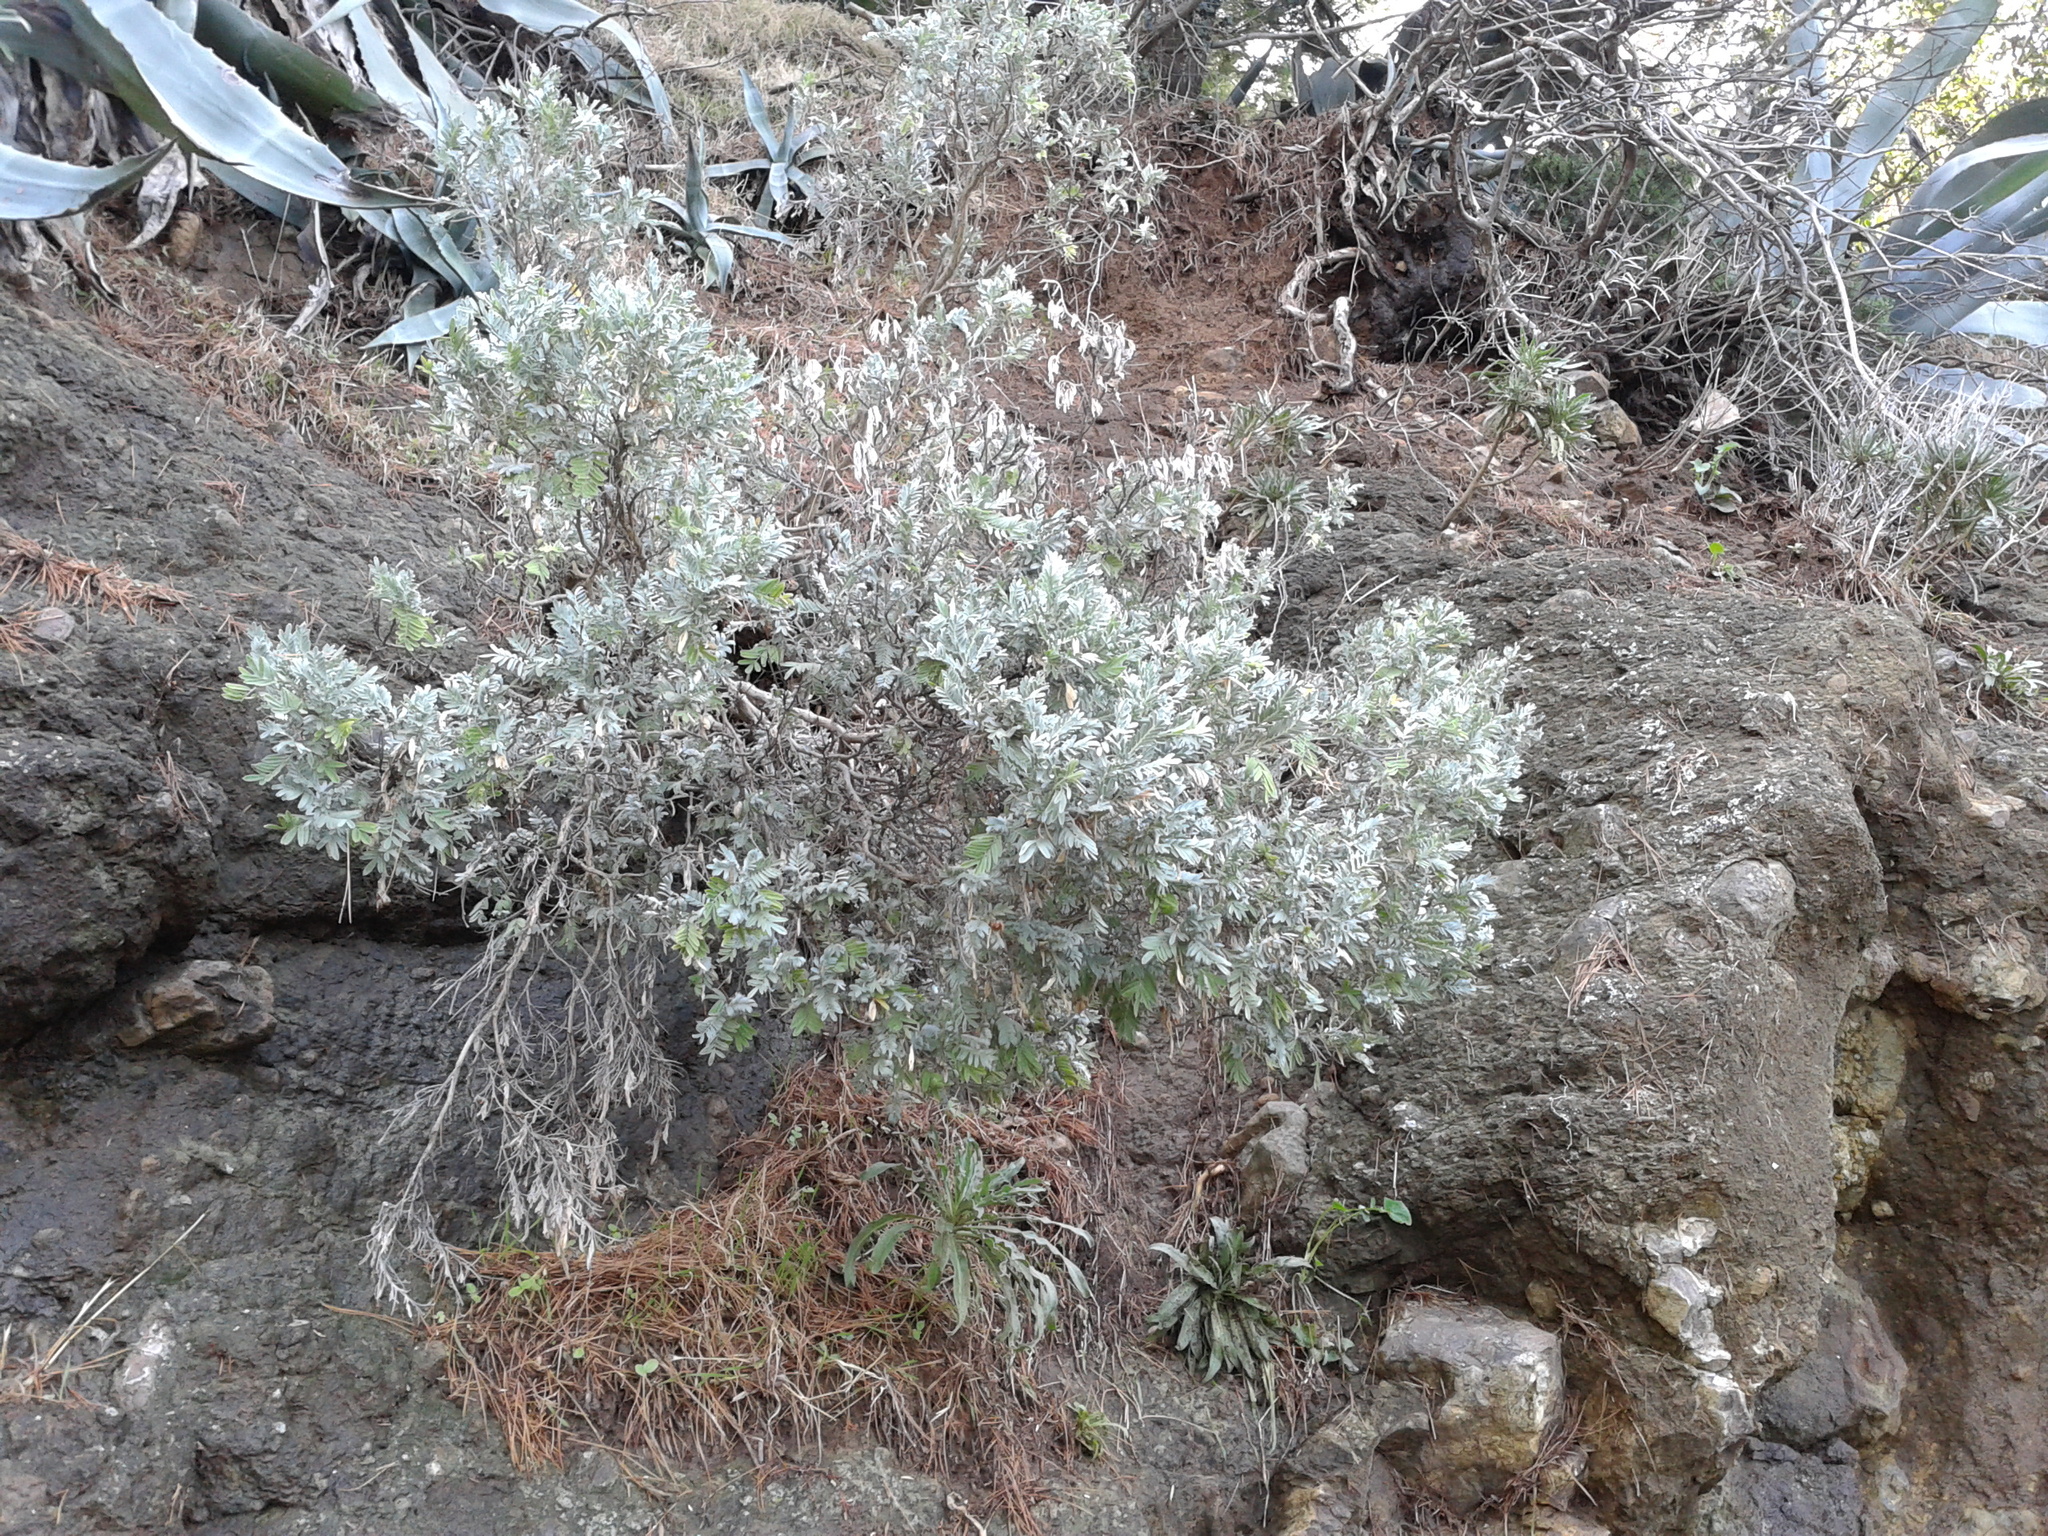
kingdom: Plantae
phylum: Tracheophyta
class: Magnoliopsida
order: Fabales
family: Fabaceae
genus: Anthyllis
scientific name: Anthyllis barba-jovis
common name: Jupiter's-beard
